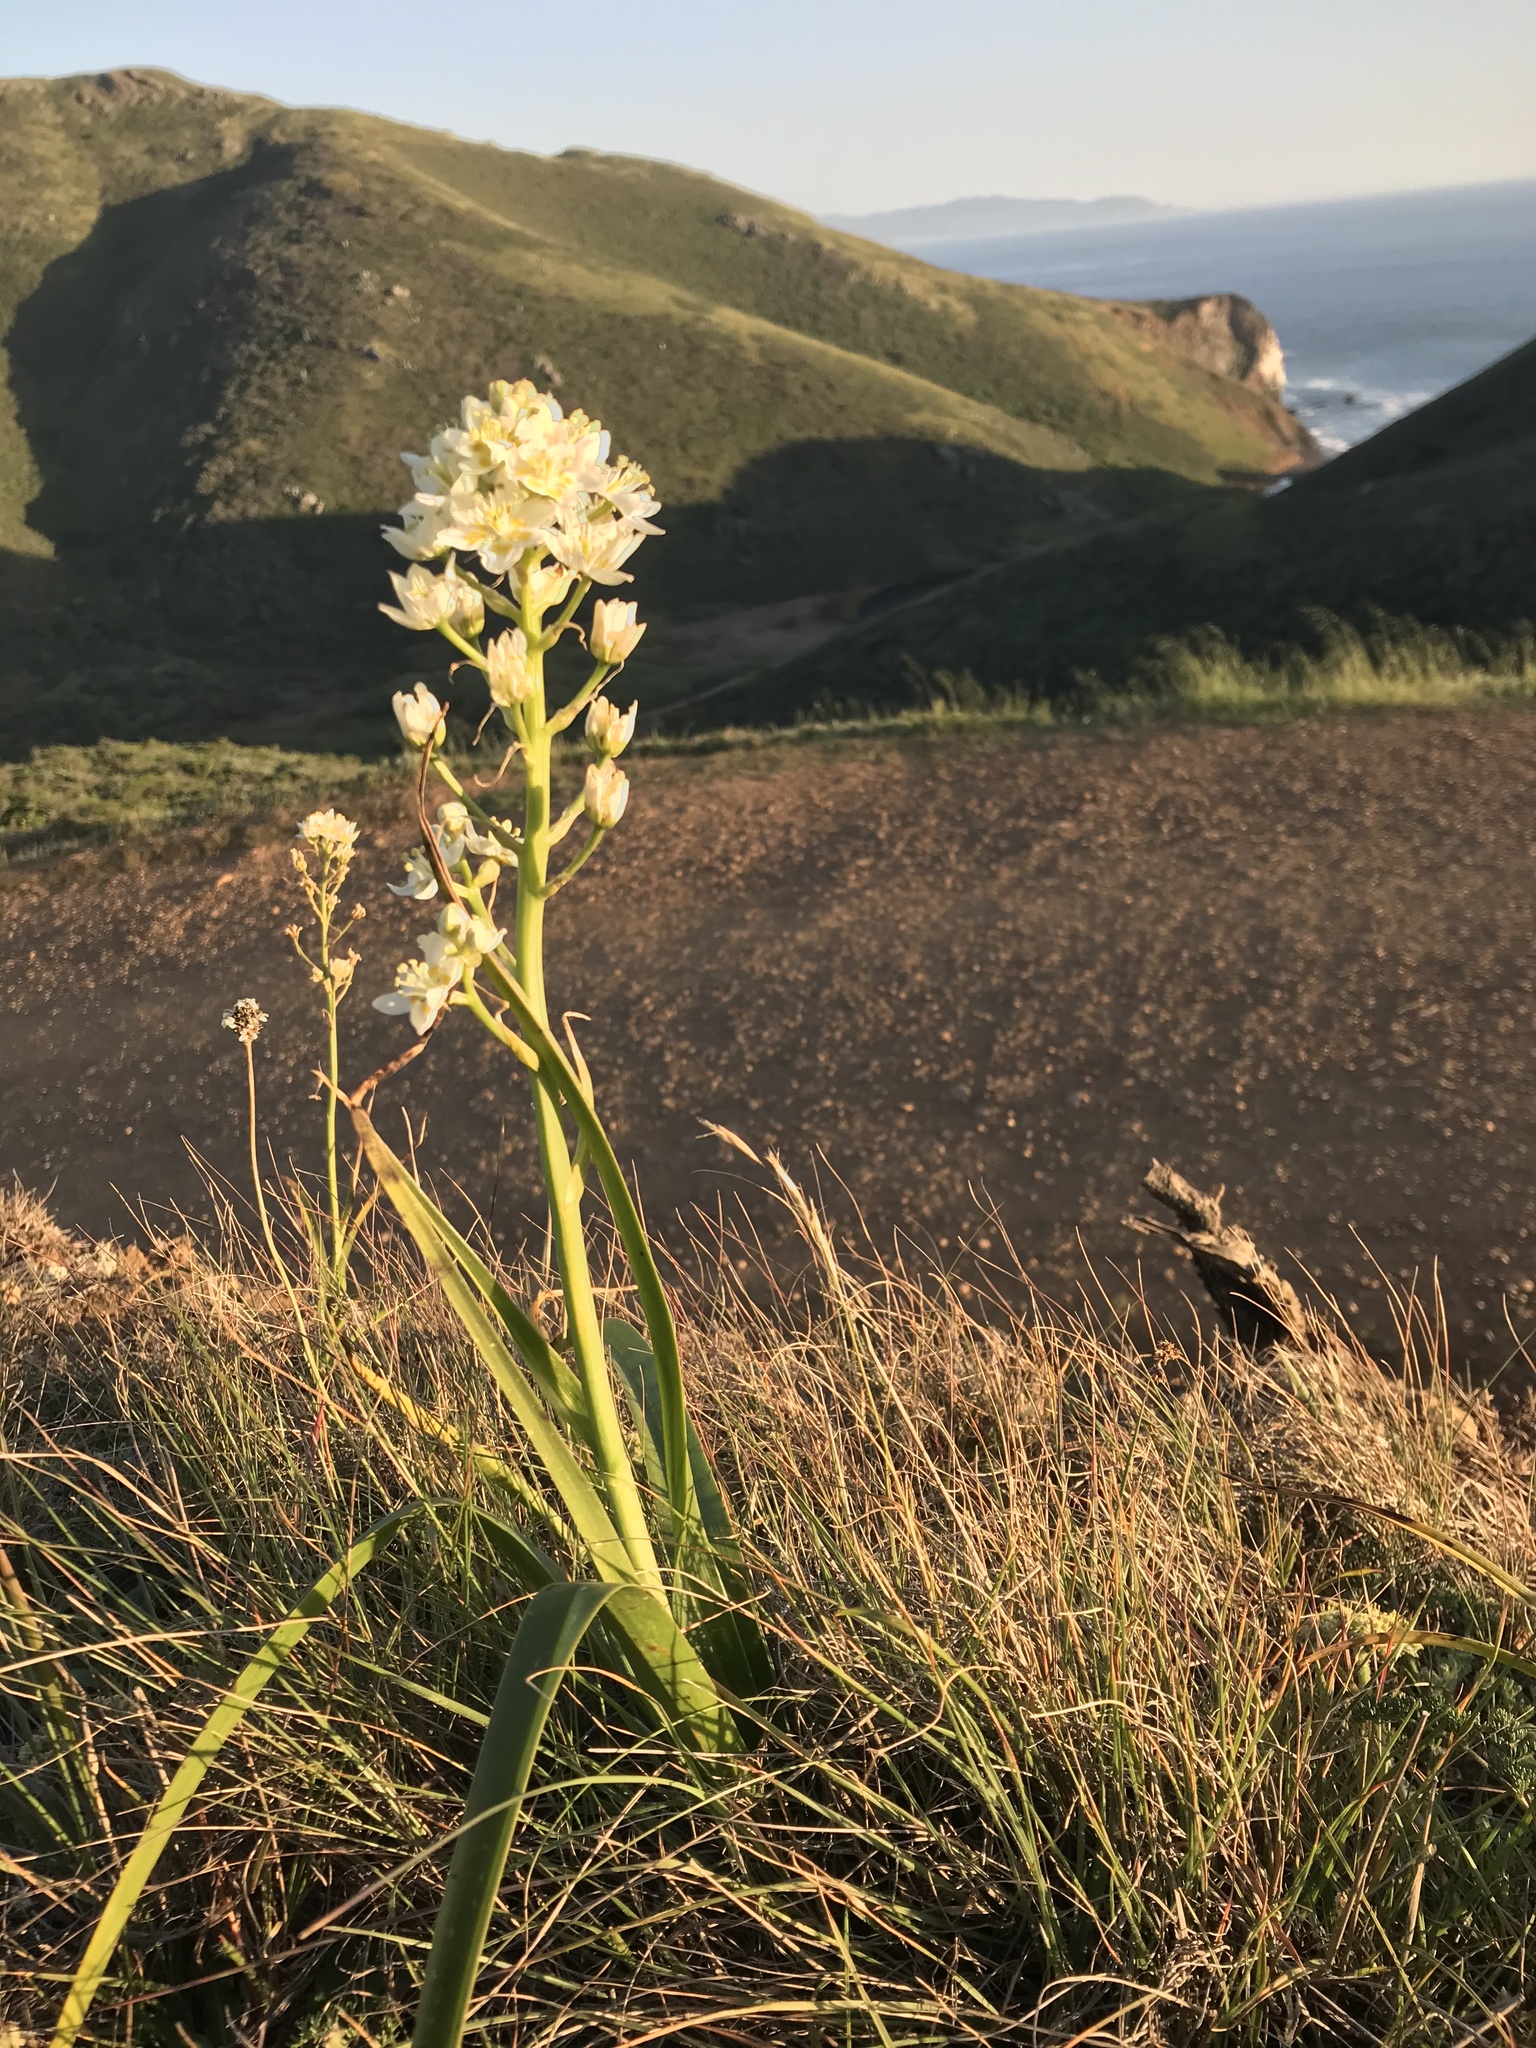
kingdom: Plantae
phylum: Tracheophyta
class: Liliopsida
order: Liliales
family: Melanthiaceae
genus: Toxicoscordion
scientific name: Toxicoscordion fremontii
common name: Fremont's death camas
